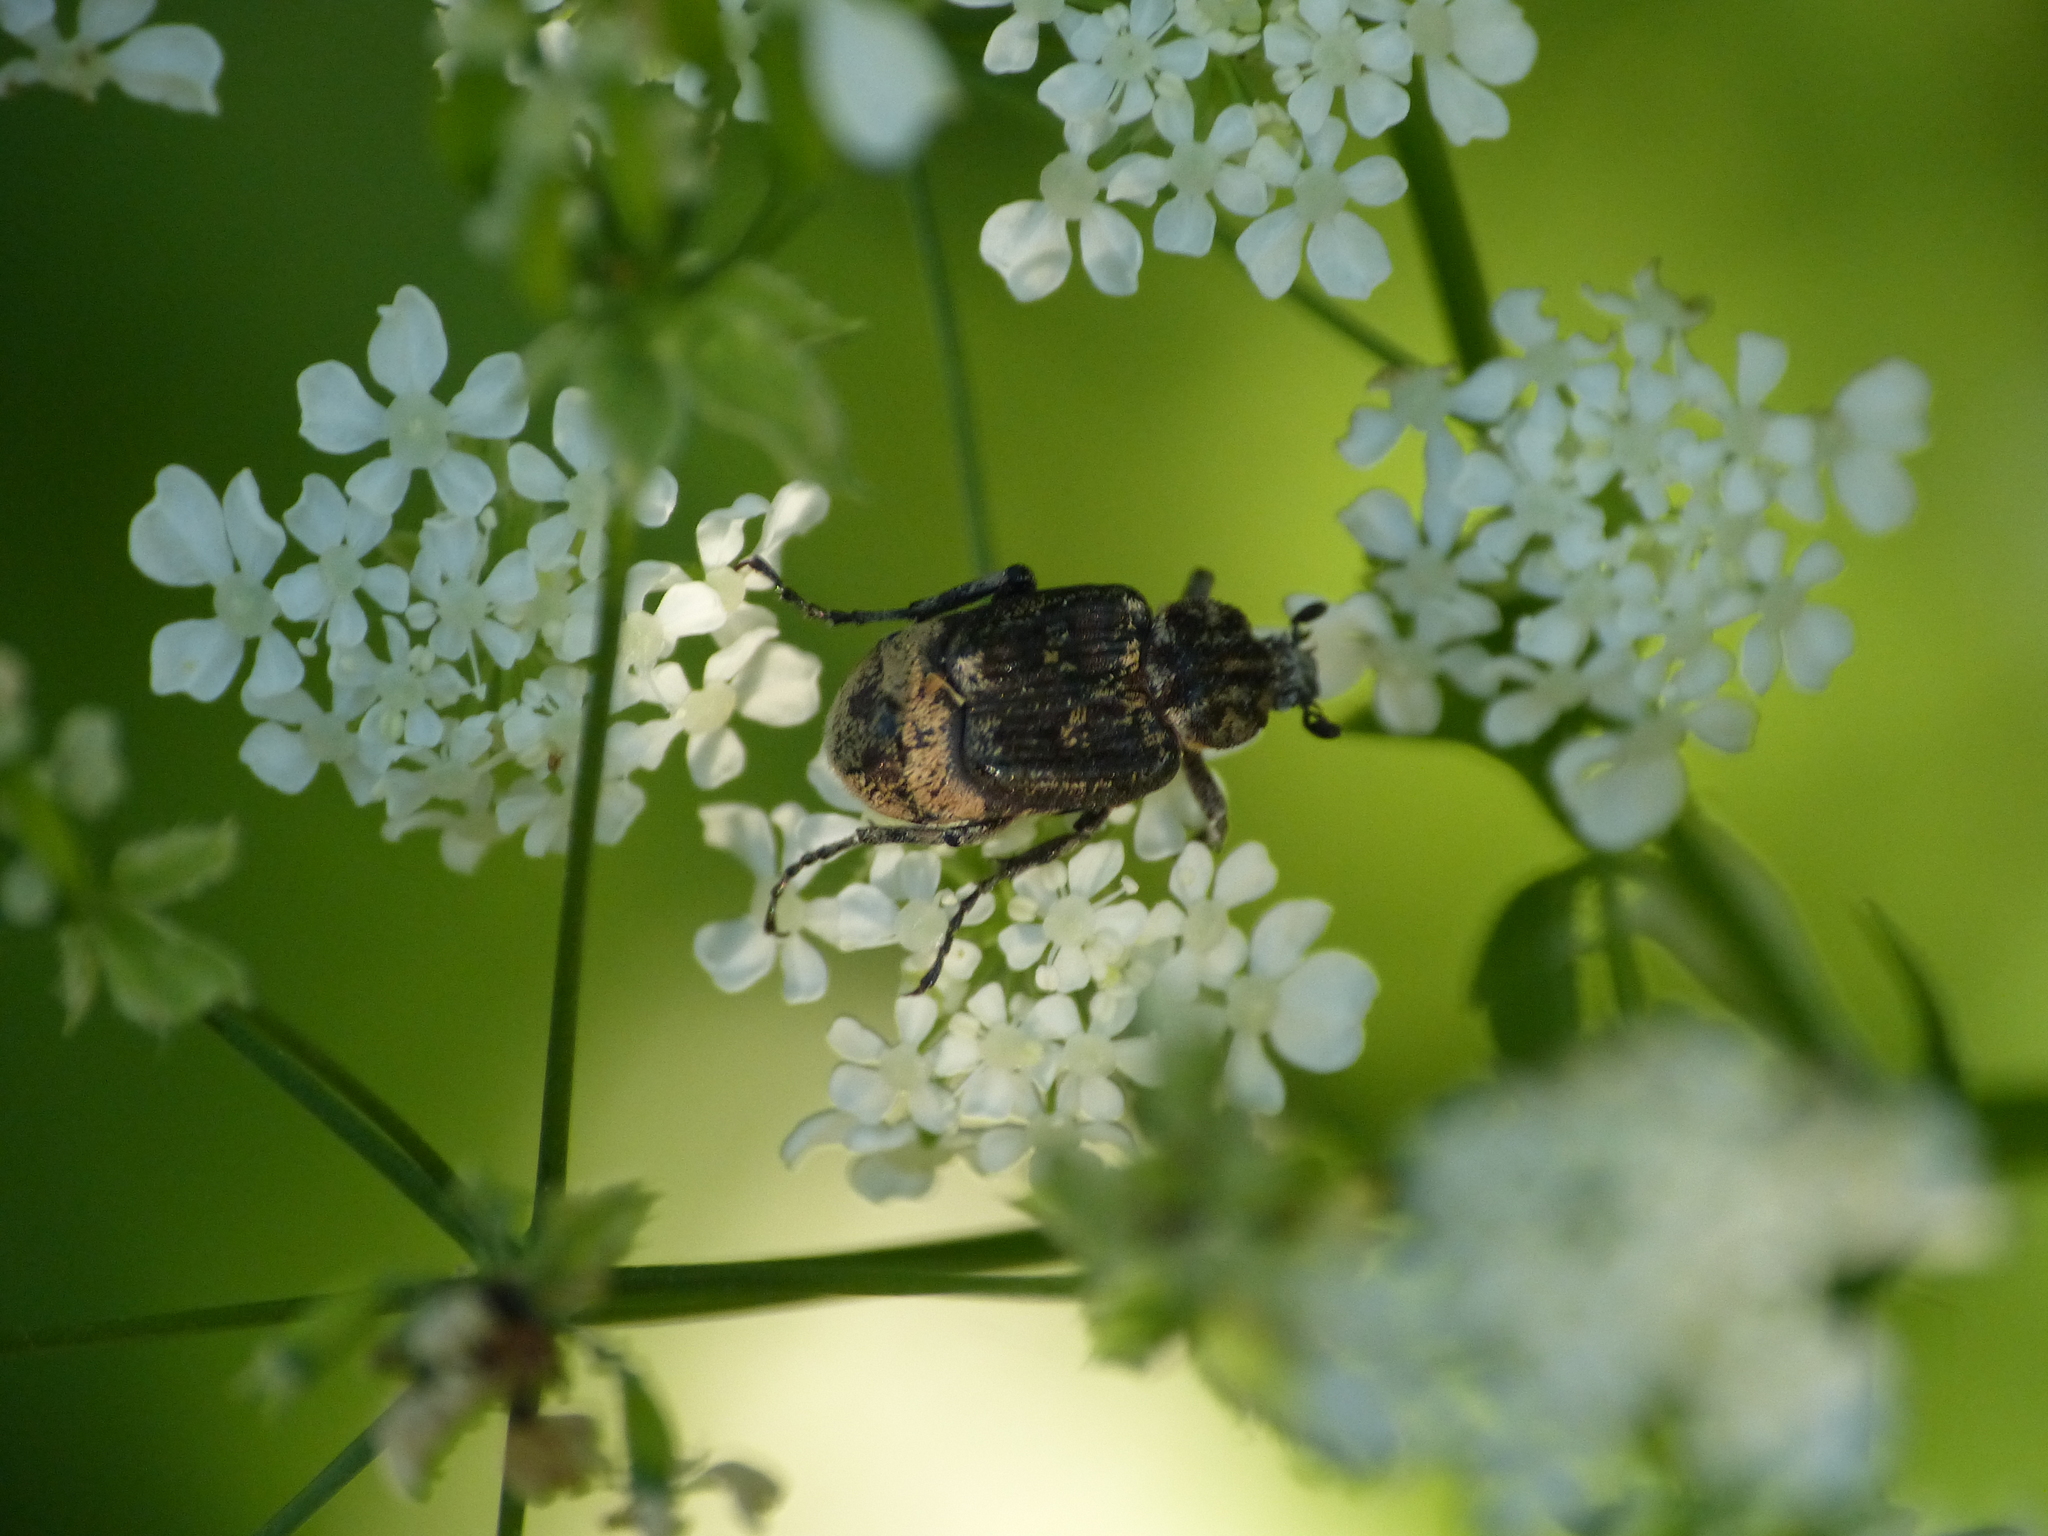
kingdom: Animalia
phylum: Arthropoda
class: Insecta
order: Coleoptera
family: Scarabaeidae
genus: Valgus
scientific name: Valgus hemipterus
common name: Bug flower chafer
